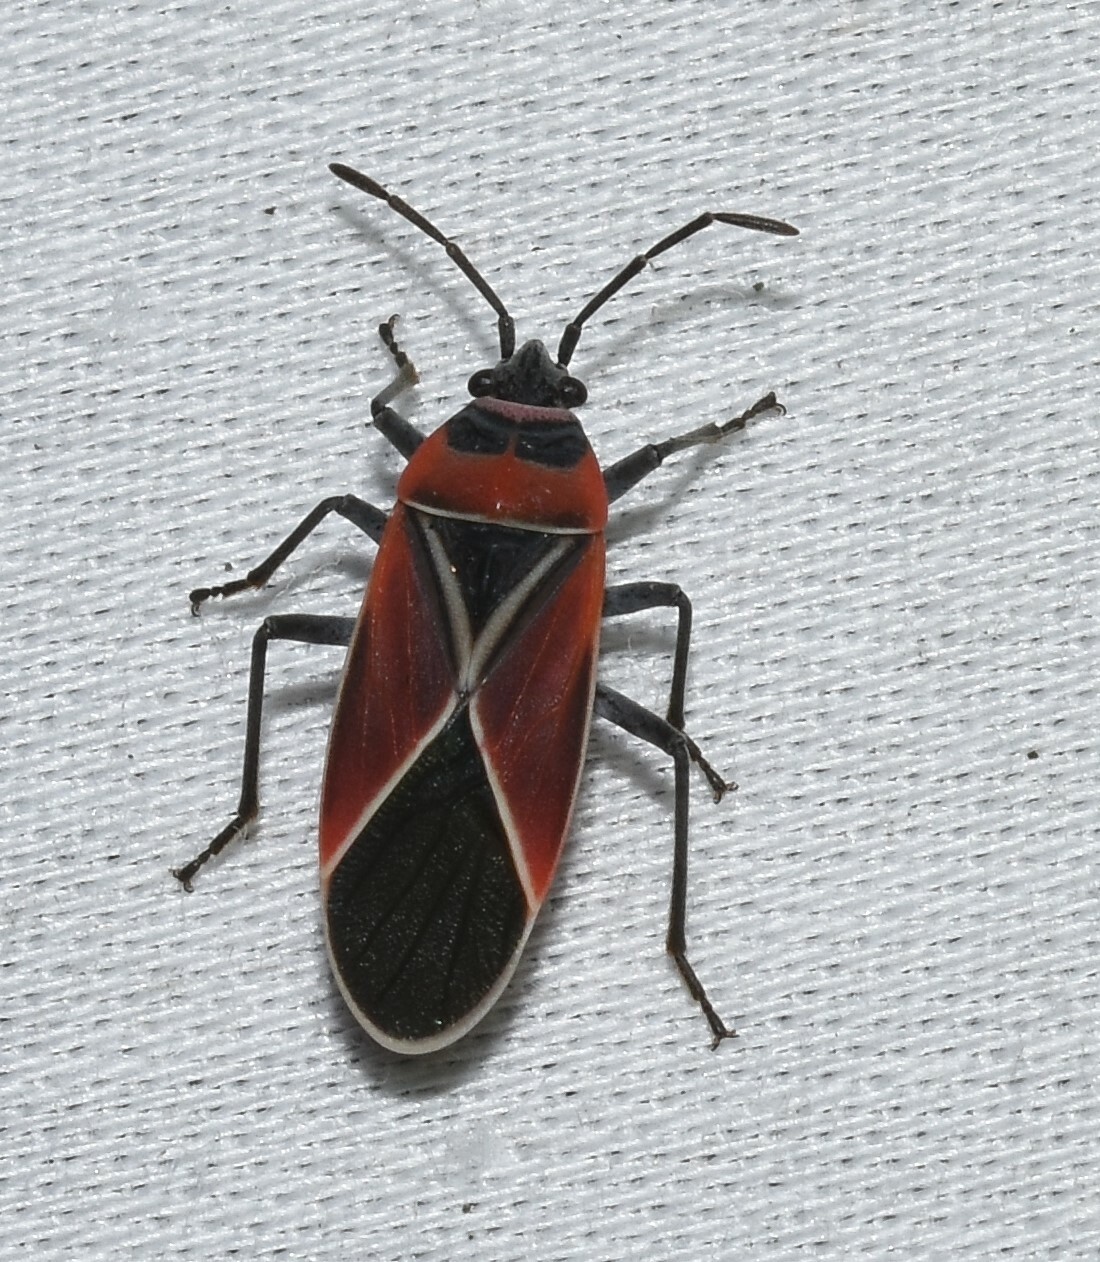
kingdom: Animalia
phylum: Arthropoda
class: Insecta
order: Hemiptera
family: Lygaeidae
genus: Neacoryphus
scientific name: Neacoryphus bicrucis
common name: Lygaeid bug
